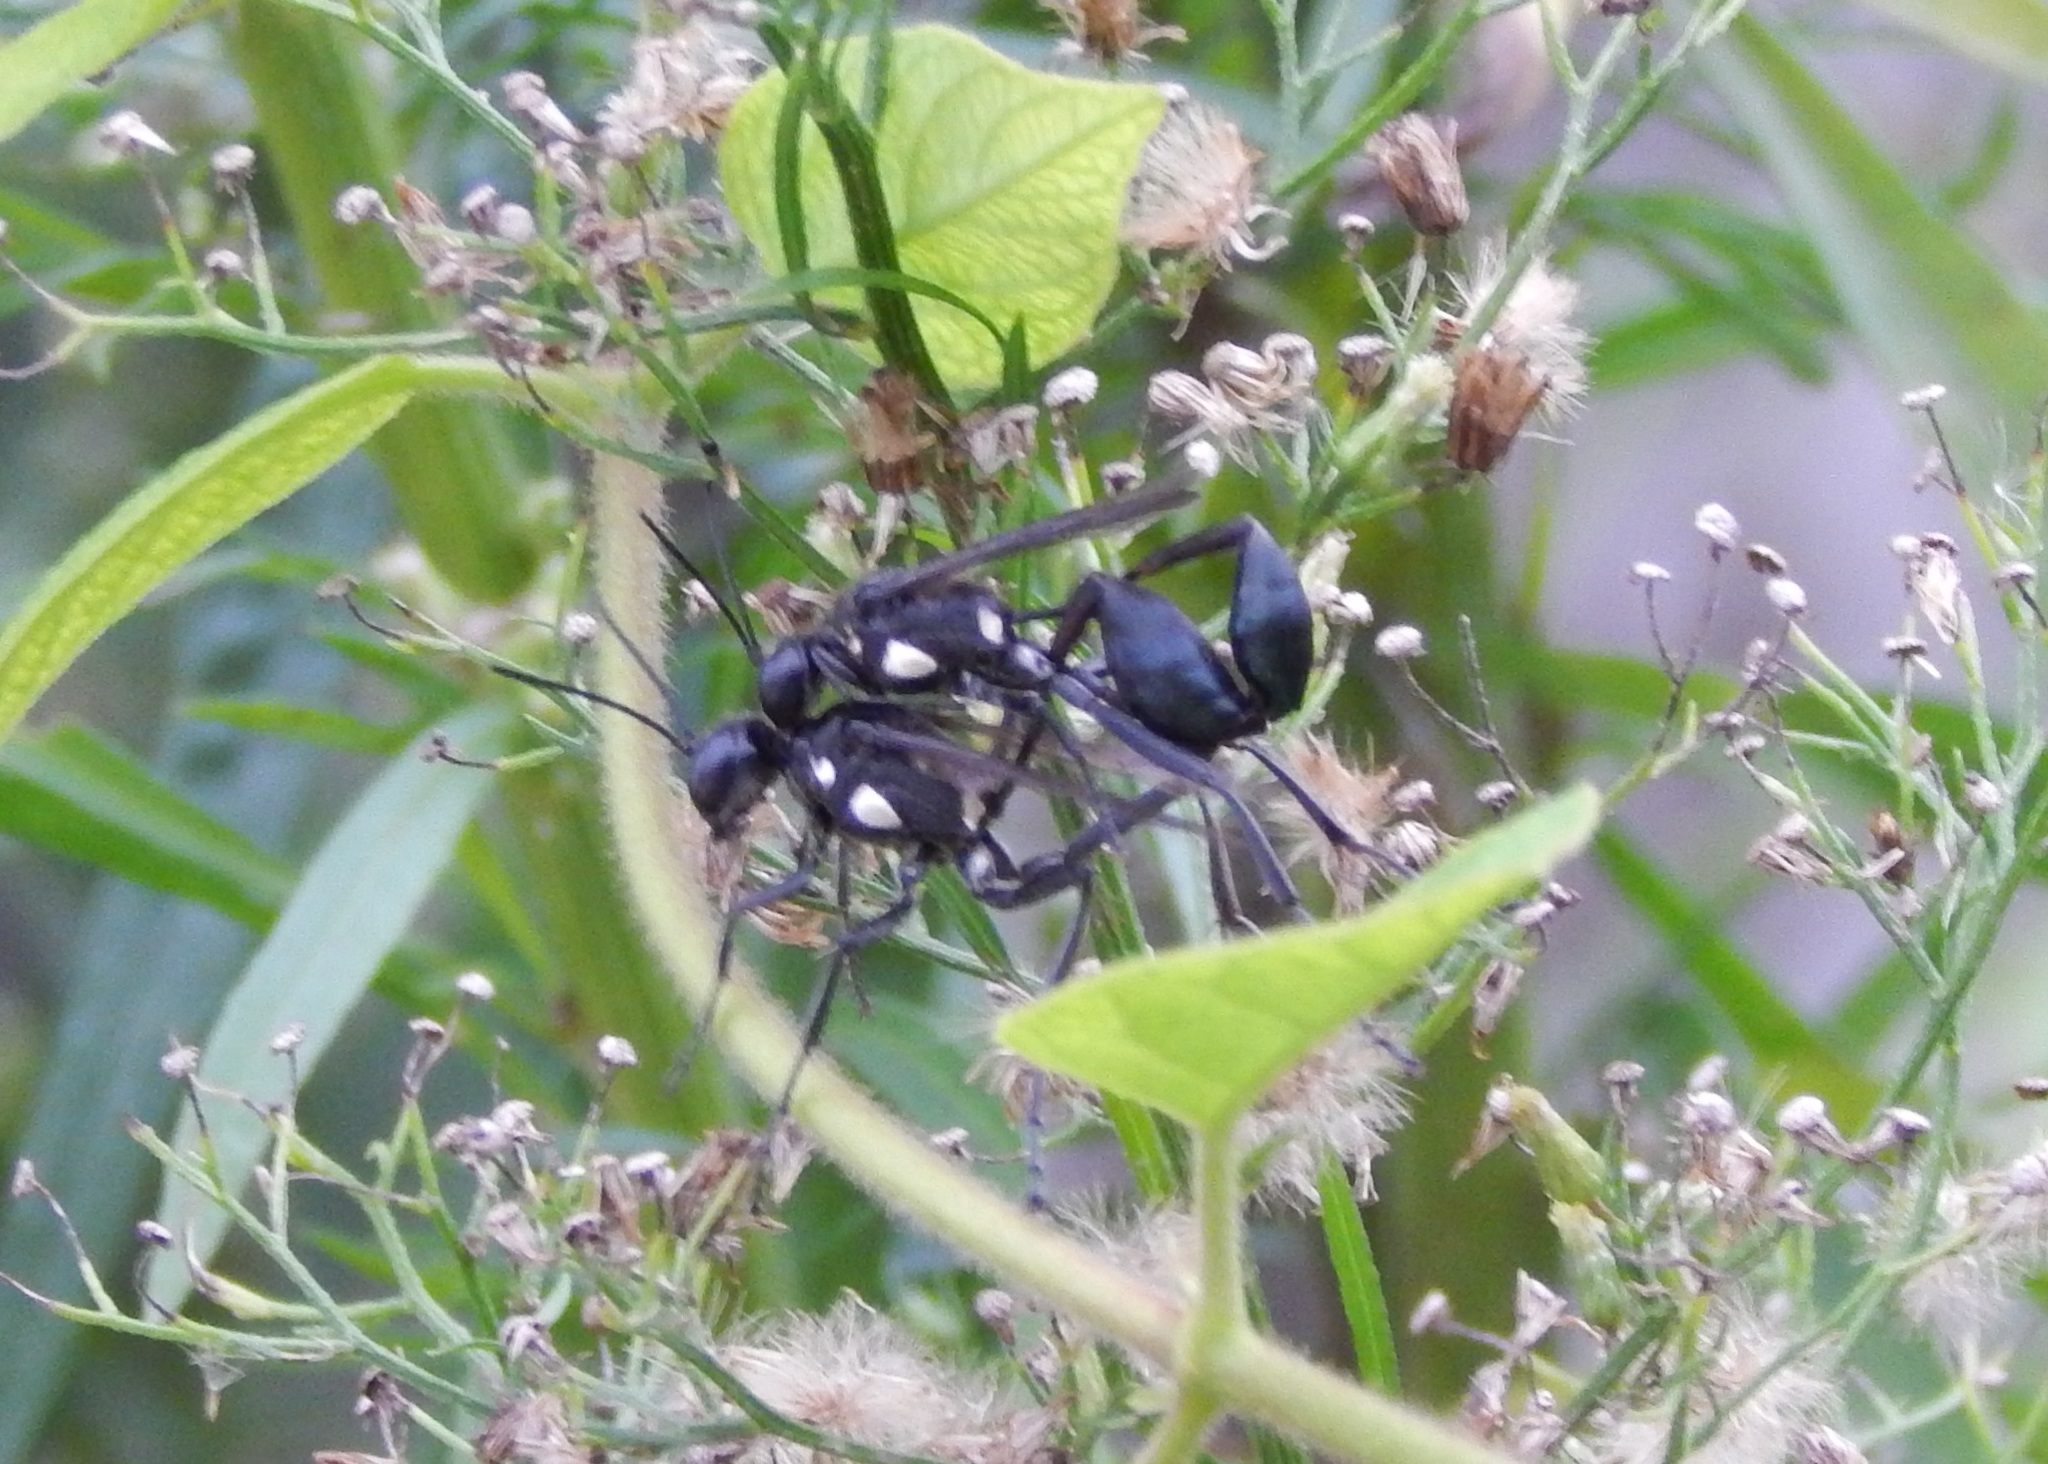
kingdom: Animalia
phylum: Arthropoda
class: Insecta
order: Hymenoptera
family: Sphecidae
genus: Eremnophila
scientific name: Eremnophila aureonotata
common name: Gold-marked thread-waisted wasp
